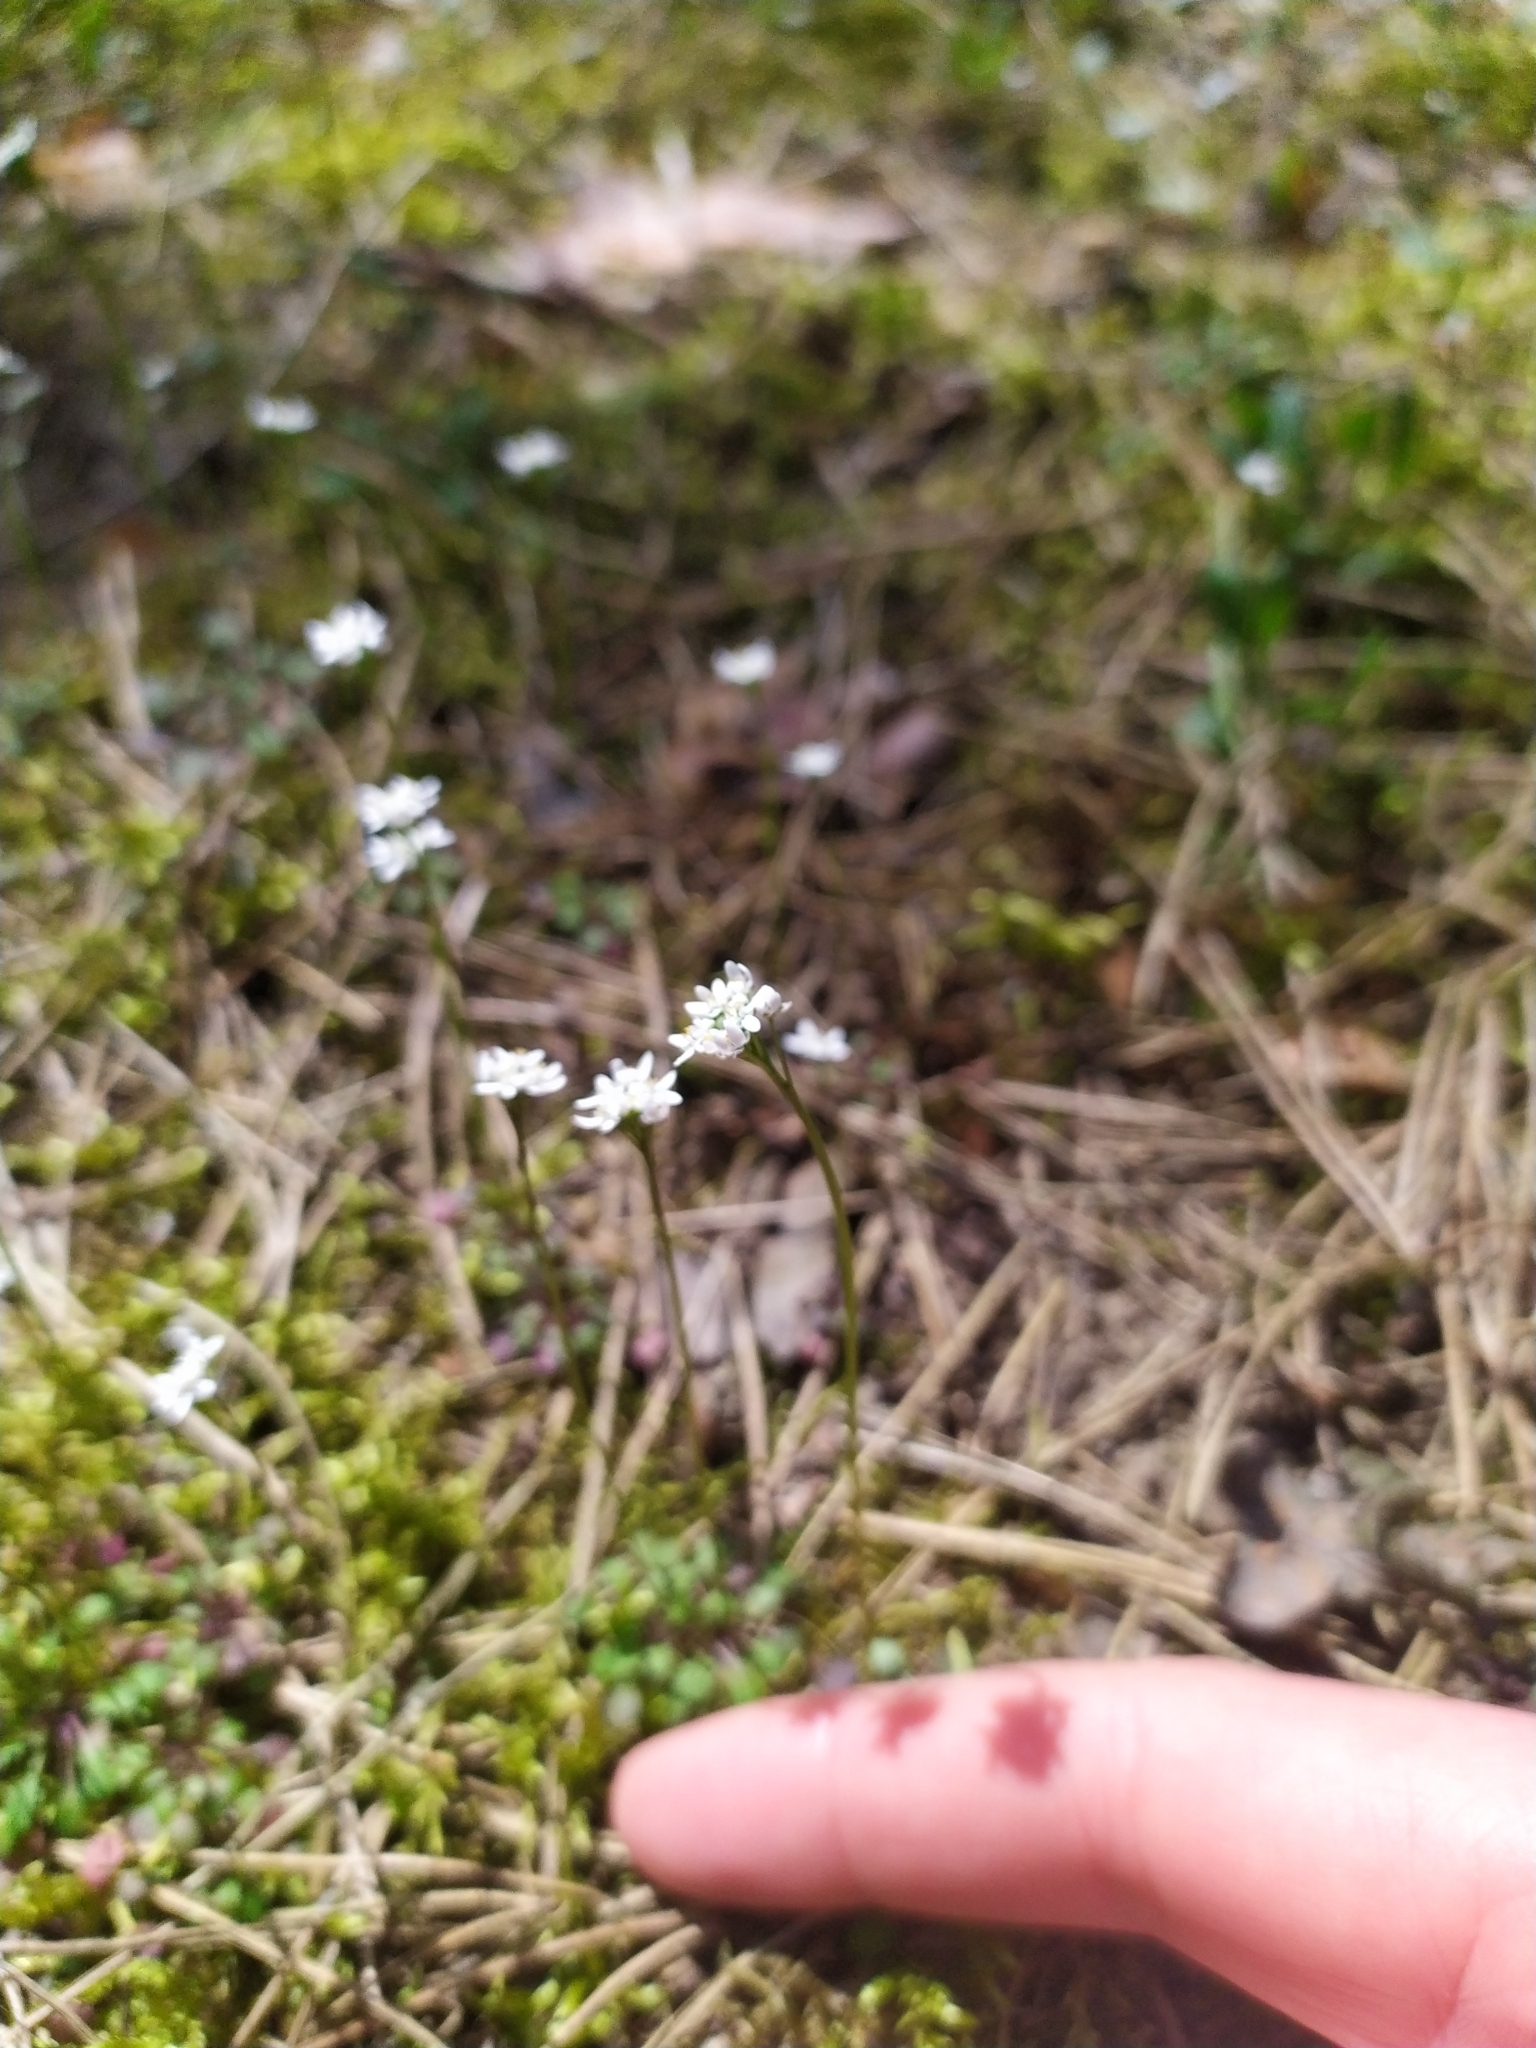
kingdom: Plantae
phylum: Tracheophyta
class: Magnoliopsida
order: Brassicales
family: Brassicaceae
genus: Teesdalia
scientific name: Teesdalia nudicaulis
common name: Shepherd's cress
